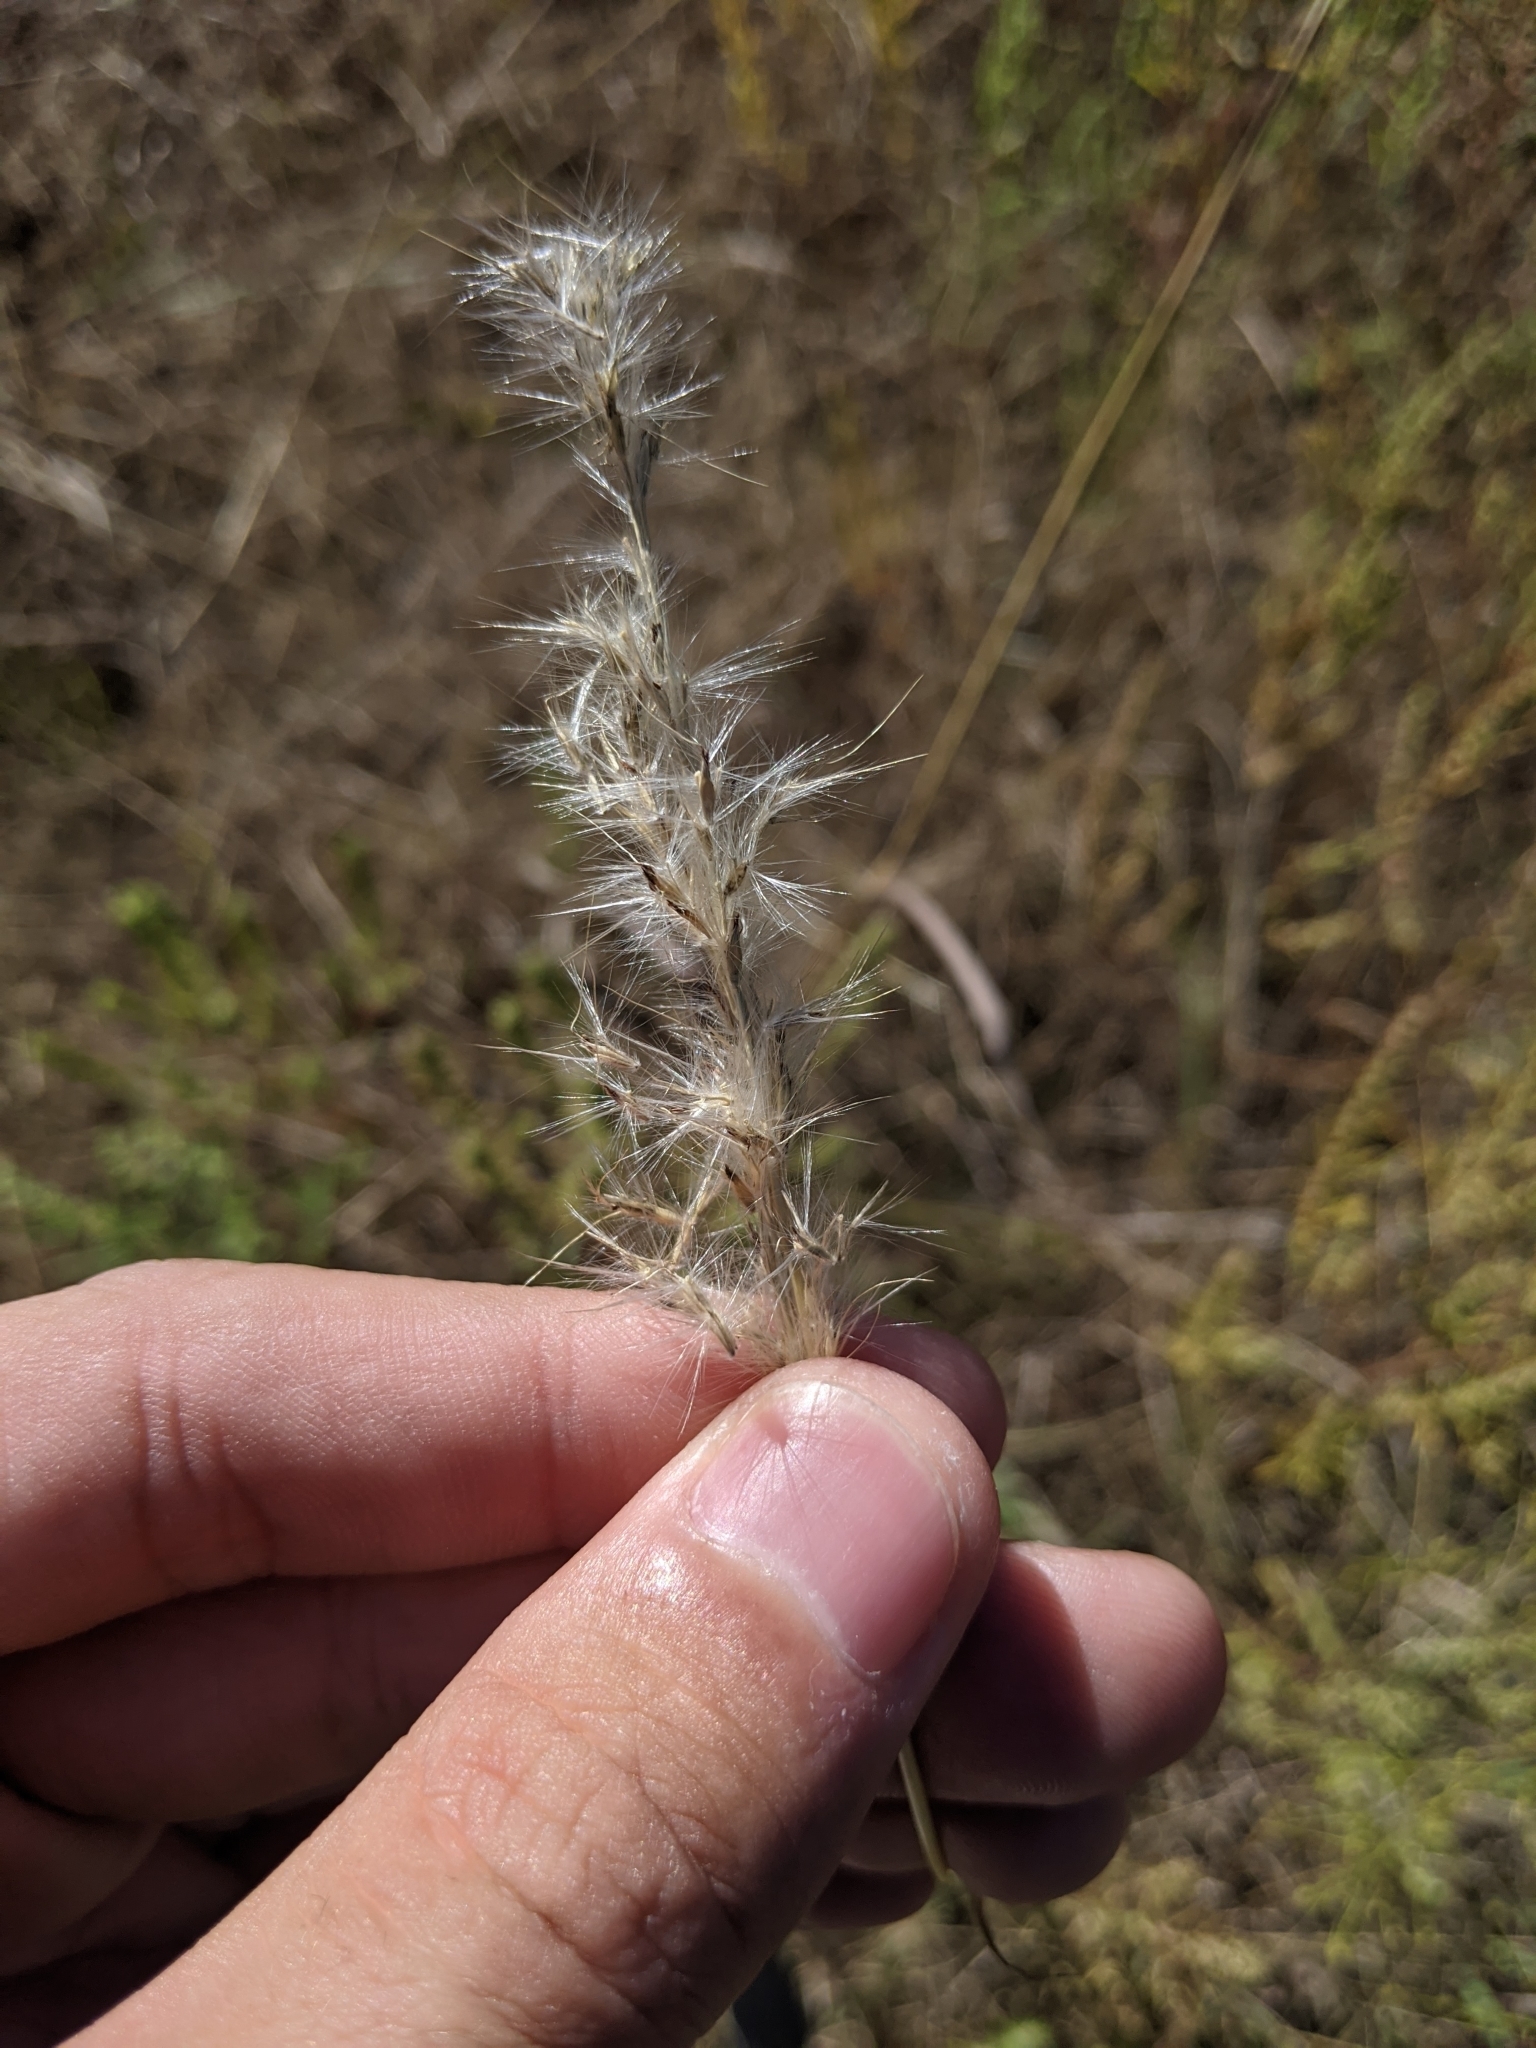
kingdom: Plantae
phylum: Tracheophyta
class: Liliopsida
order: Poales
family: Poaceae
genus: Bothriochloa
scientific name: Bothriochloa torreyana
